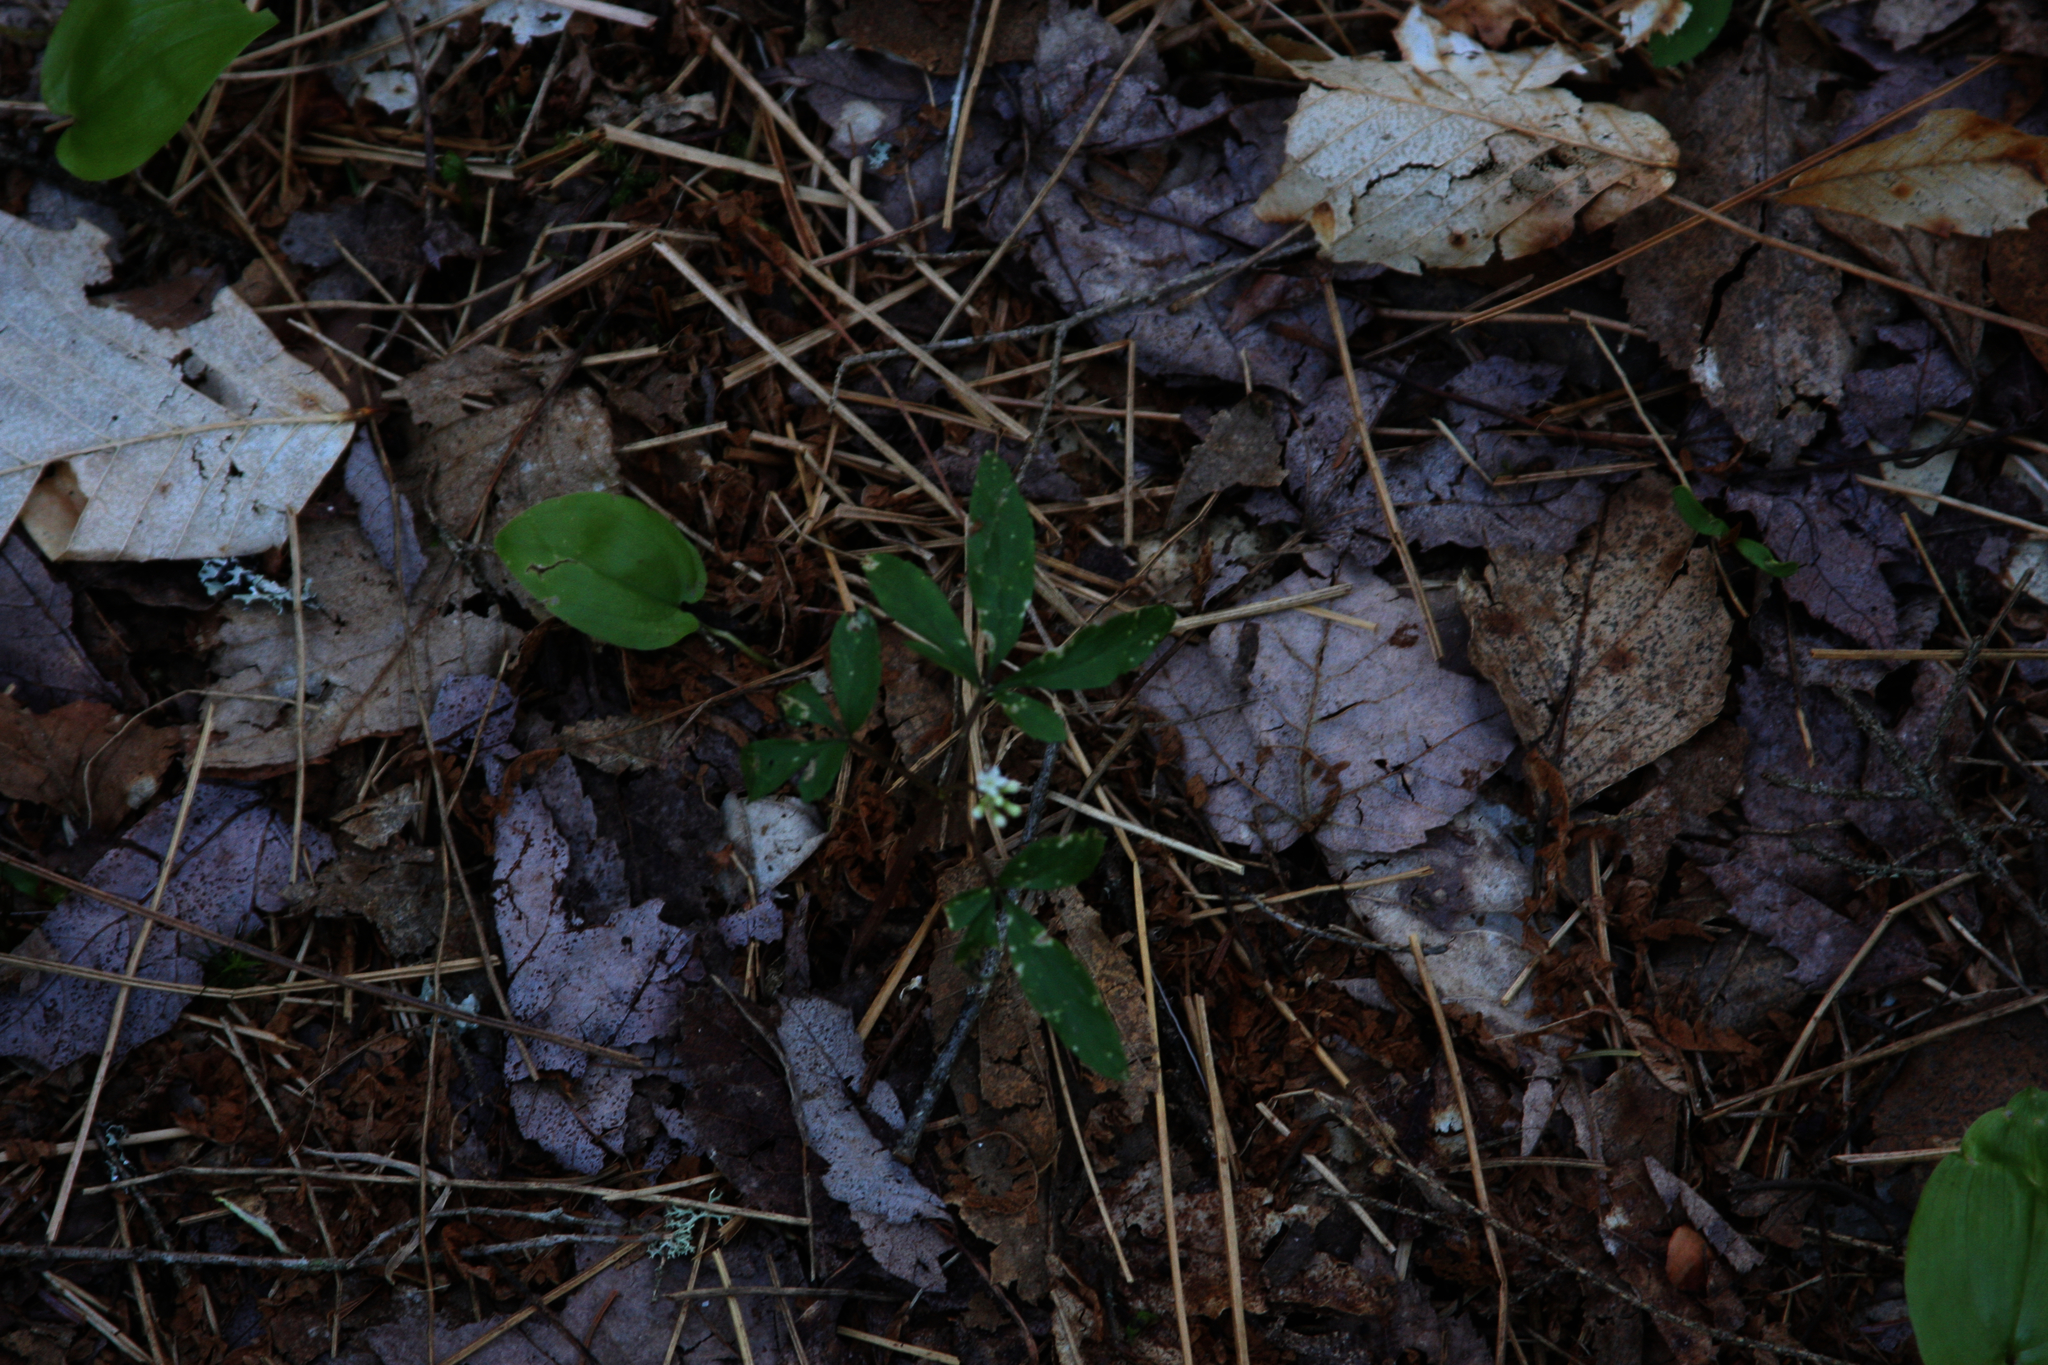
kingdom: Plantae
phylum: Tracheophyta
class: Magnoliopsida
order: Apiales
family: Araliaceae
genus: Panax
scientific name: Panax trifolius
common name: Dwarf ginseng
